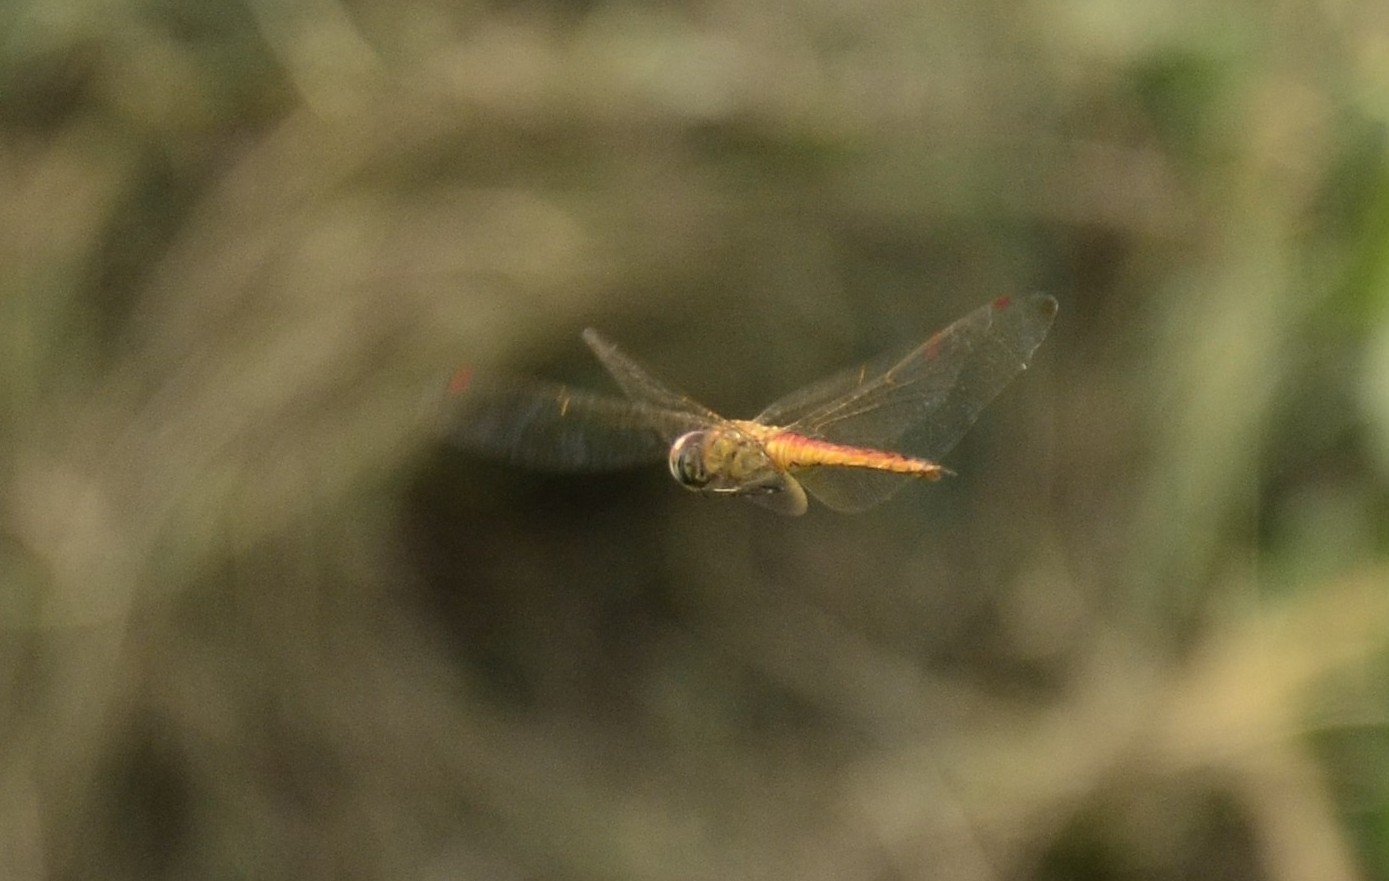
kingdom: Animalia
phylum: Arthropoda
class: Insecta
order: Odonata
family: Libellulidae
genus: Pantala
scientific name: Pantala flavescens
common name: Wandering glider
